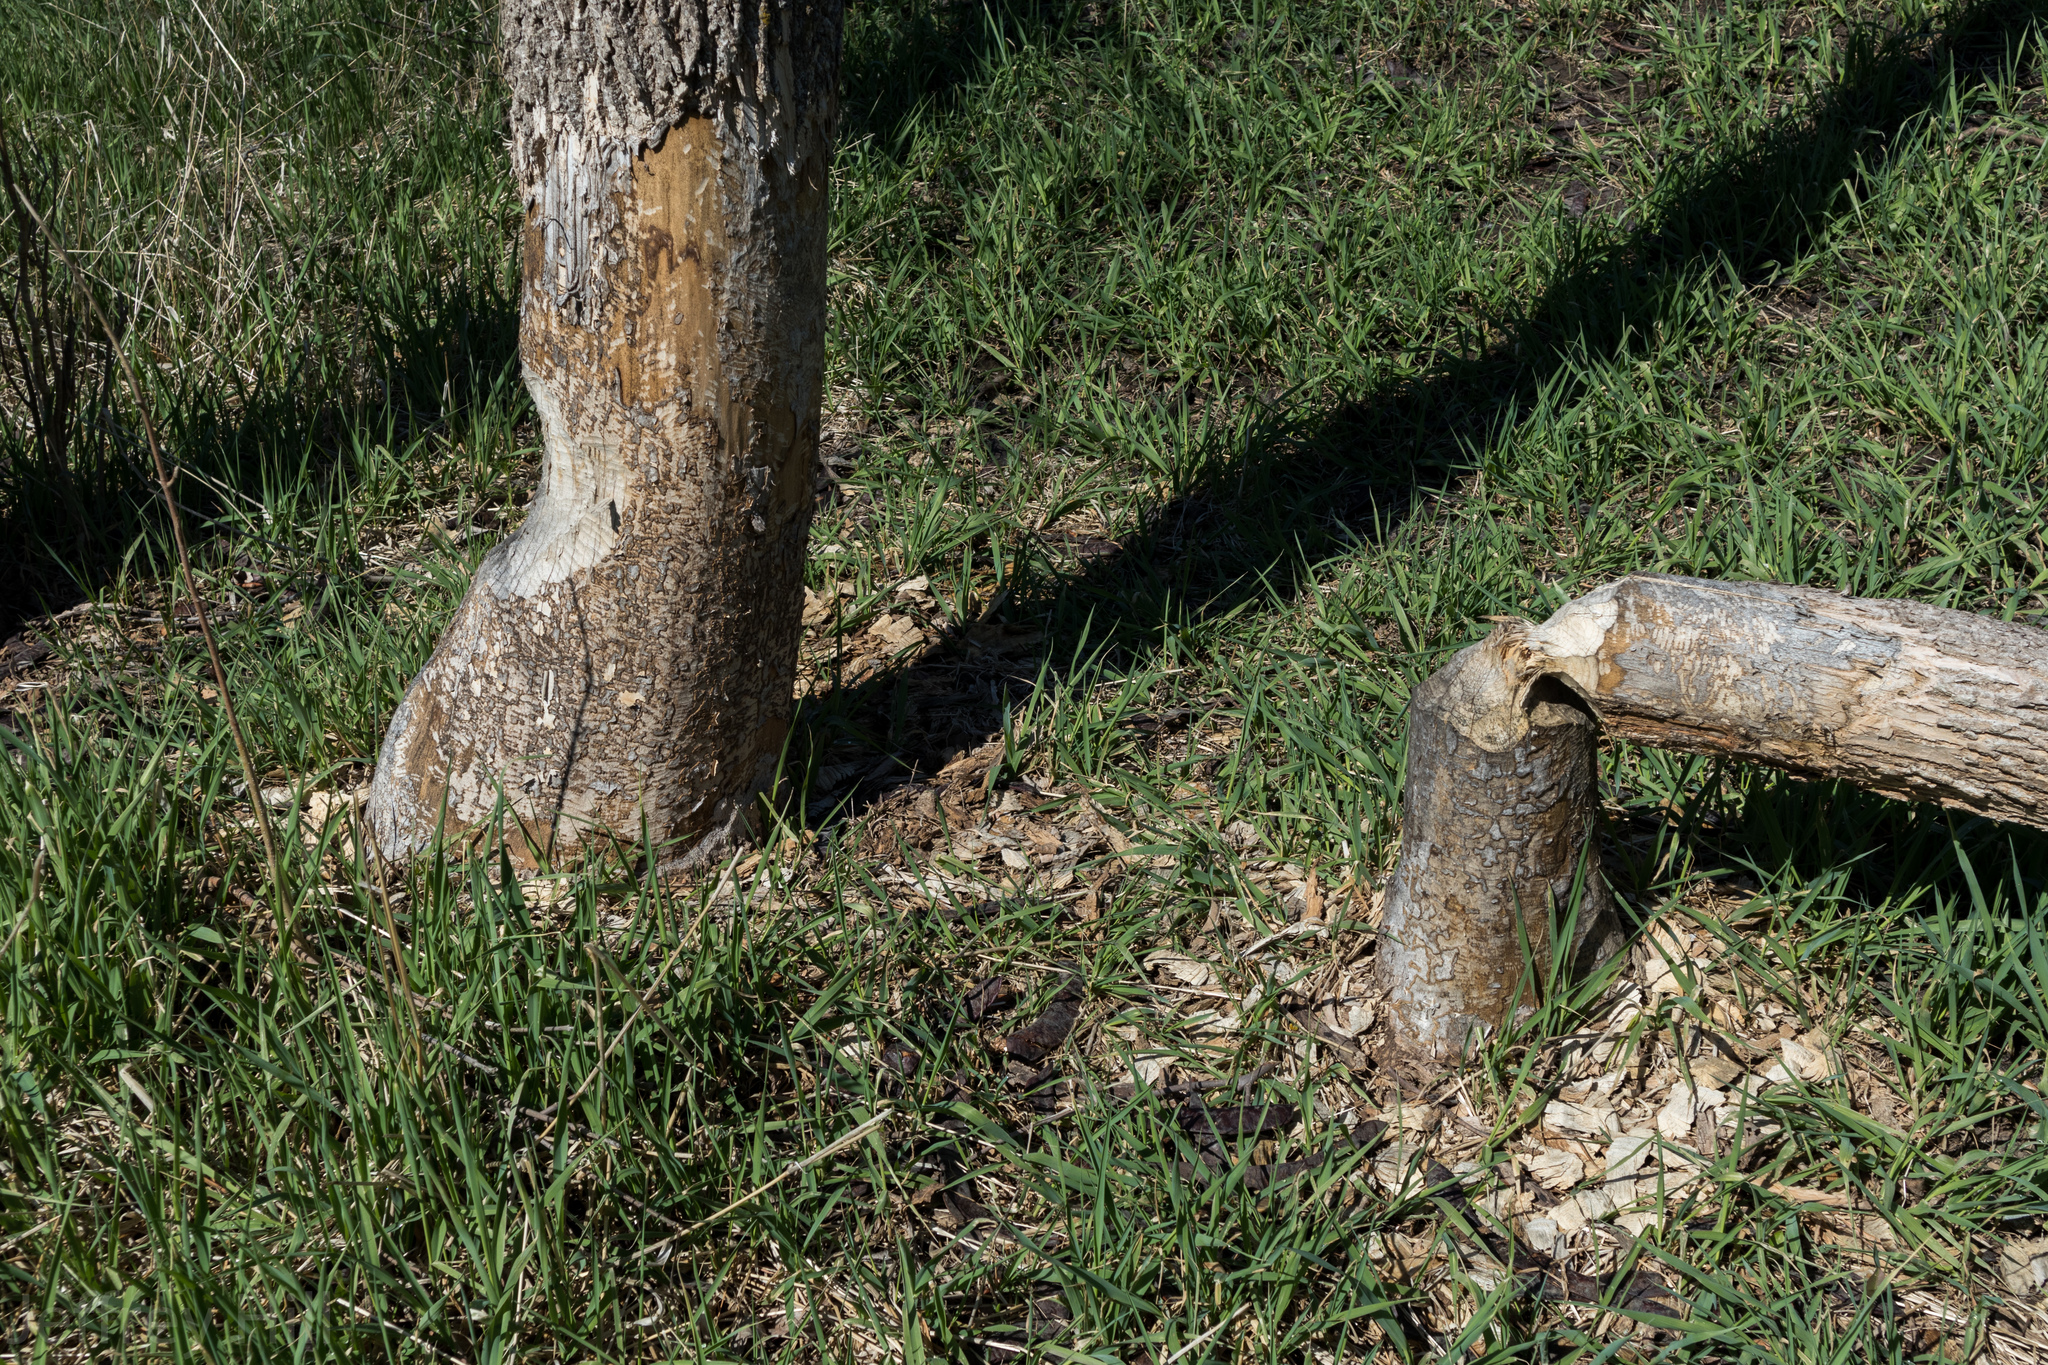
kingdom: Animalia
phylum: Chordata
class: Mammalia
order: Rodentia
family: Castoridae
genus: Castor
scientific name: Castor canadensis
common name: American beaver
